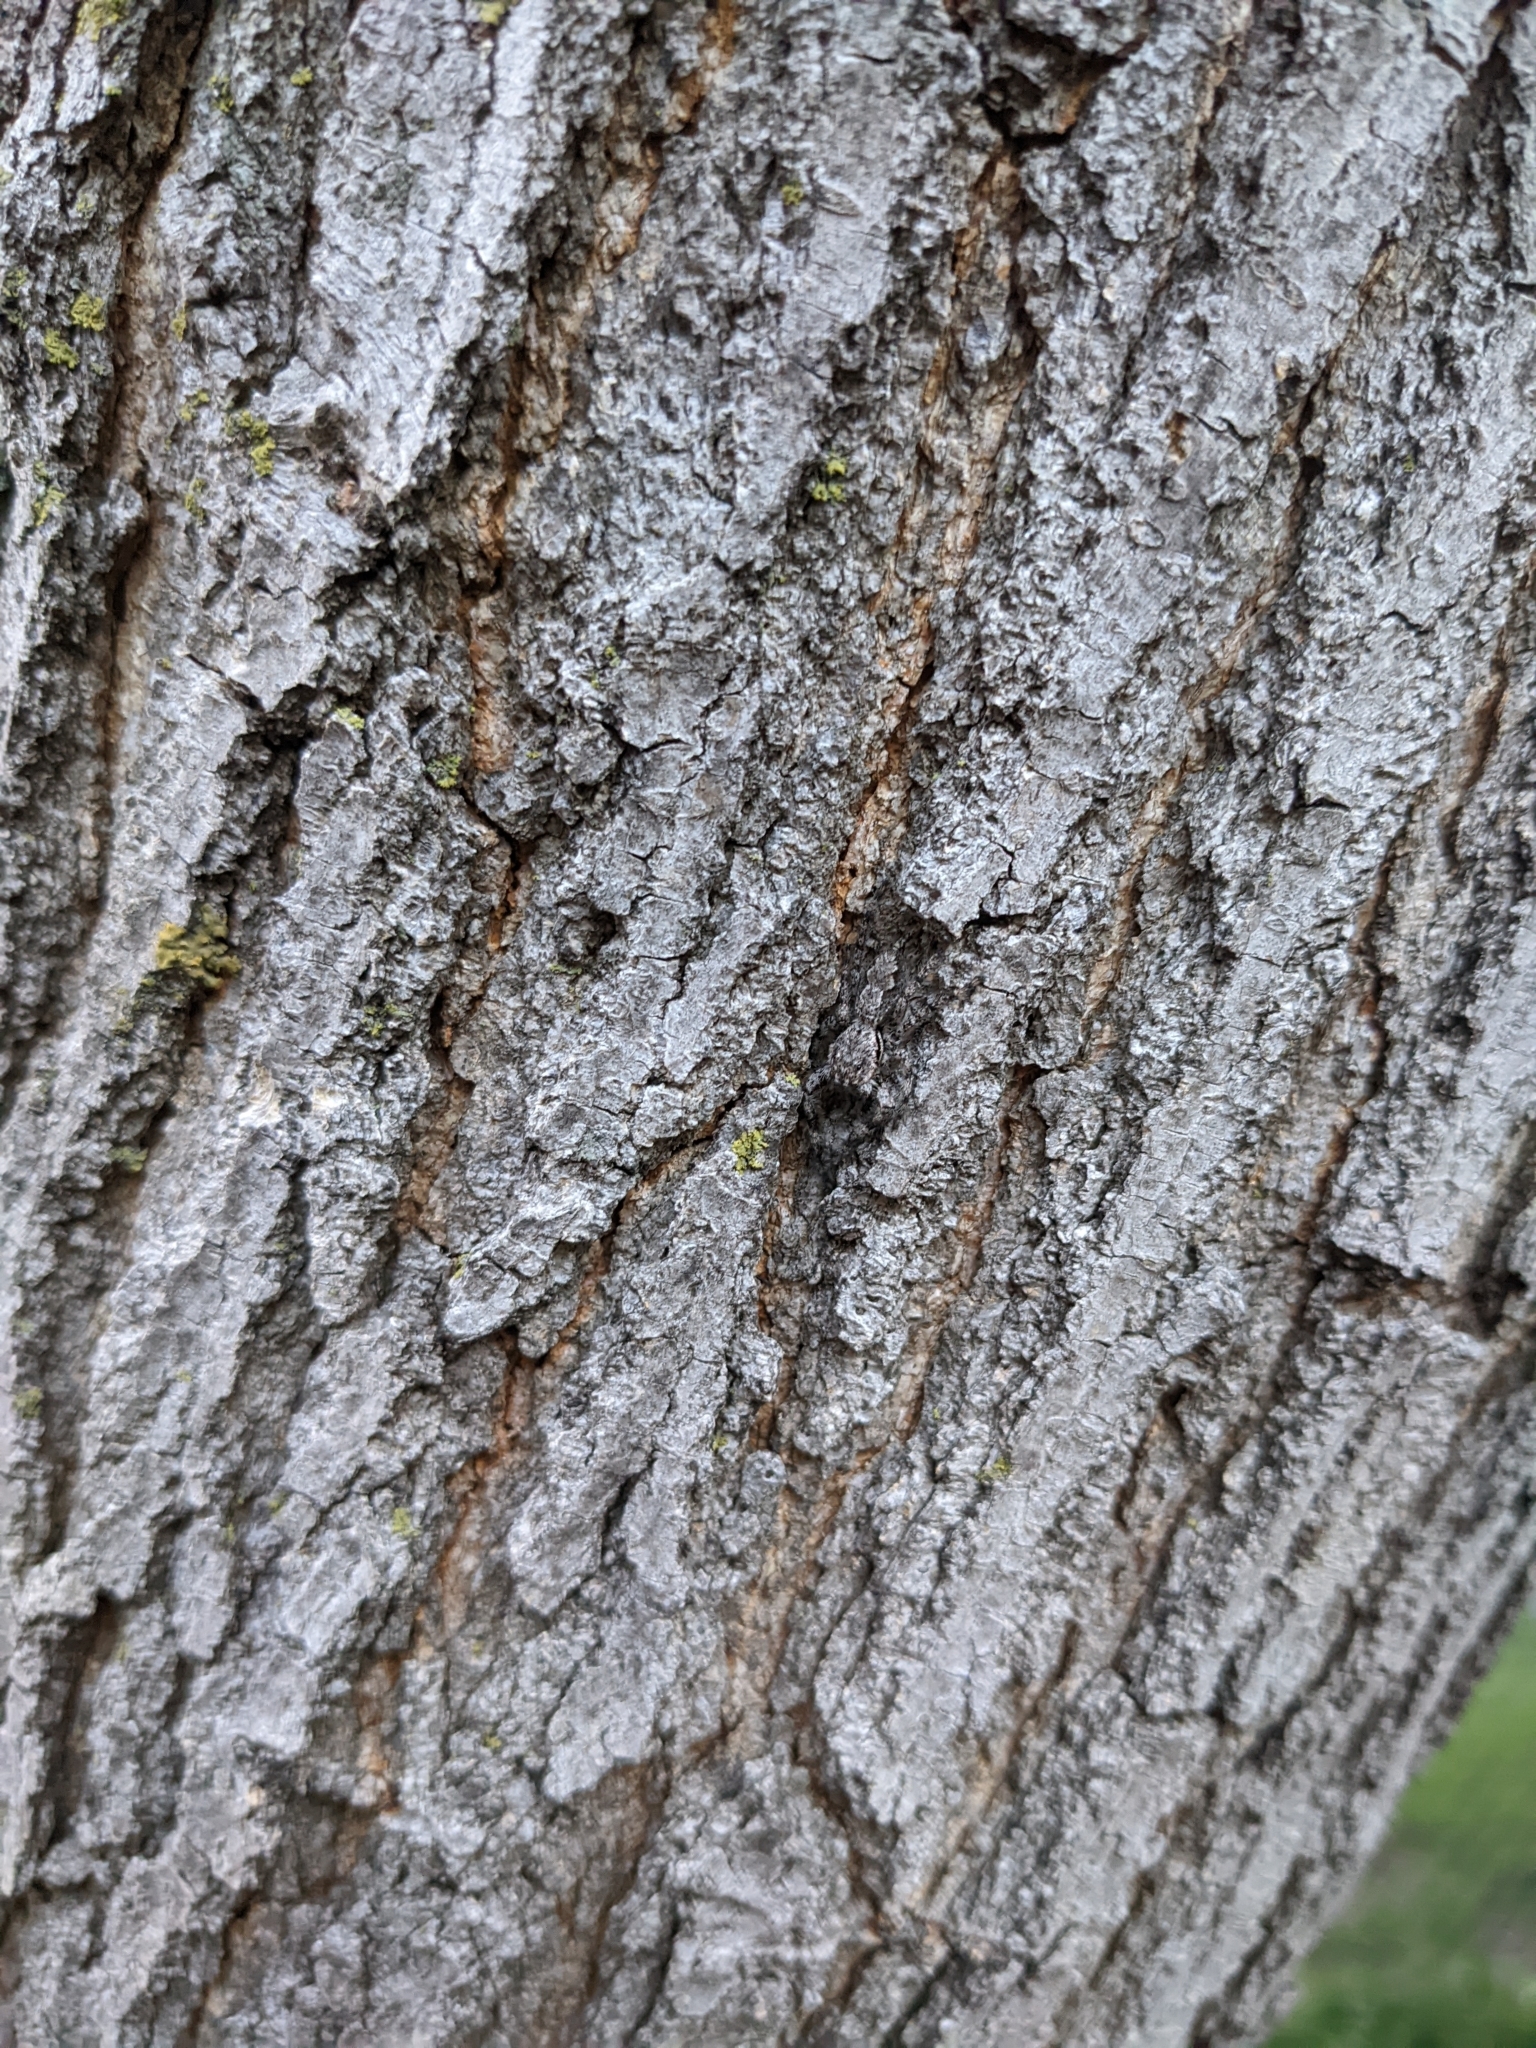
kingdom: Animalia
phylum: Arthropoda
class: Arachnida
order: Araneae
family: Salticidae
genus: Platycryptus
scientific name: Platycryptus undatus
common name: Tan jumping spider
